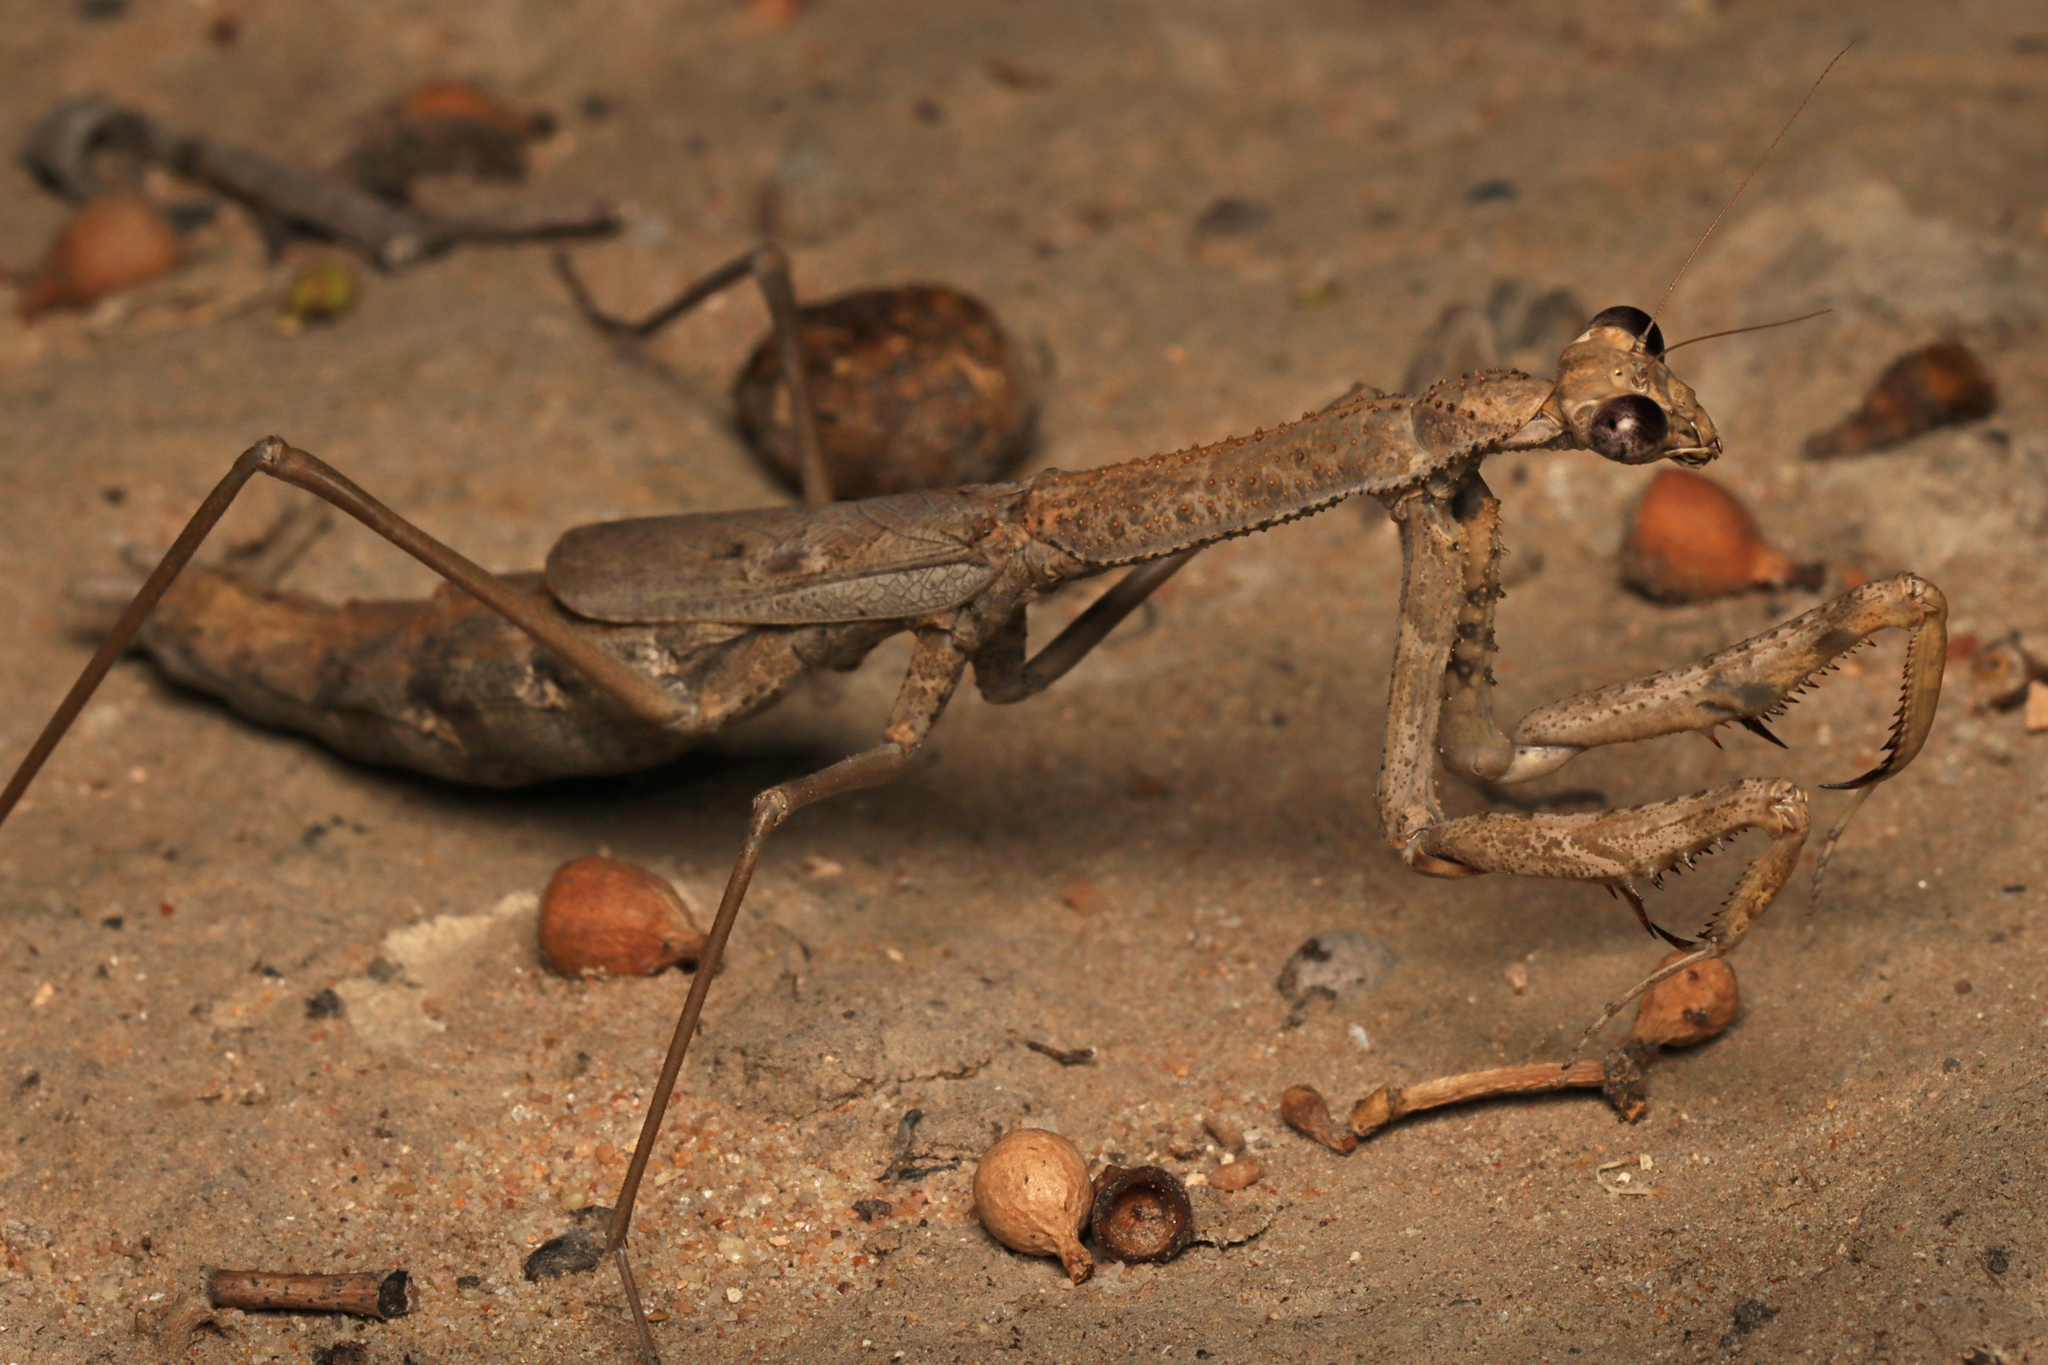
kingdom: Animalia
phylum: Arthropoda
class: Insecta
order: Mantodea
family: Mantidae
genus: Coenomantis
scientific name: Coenomantis kraussiana
